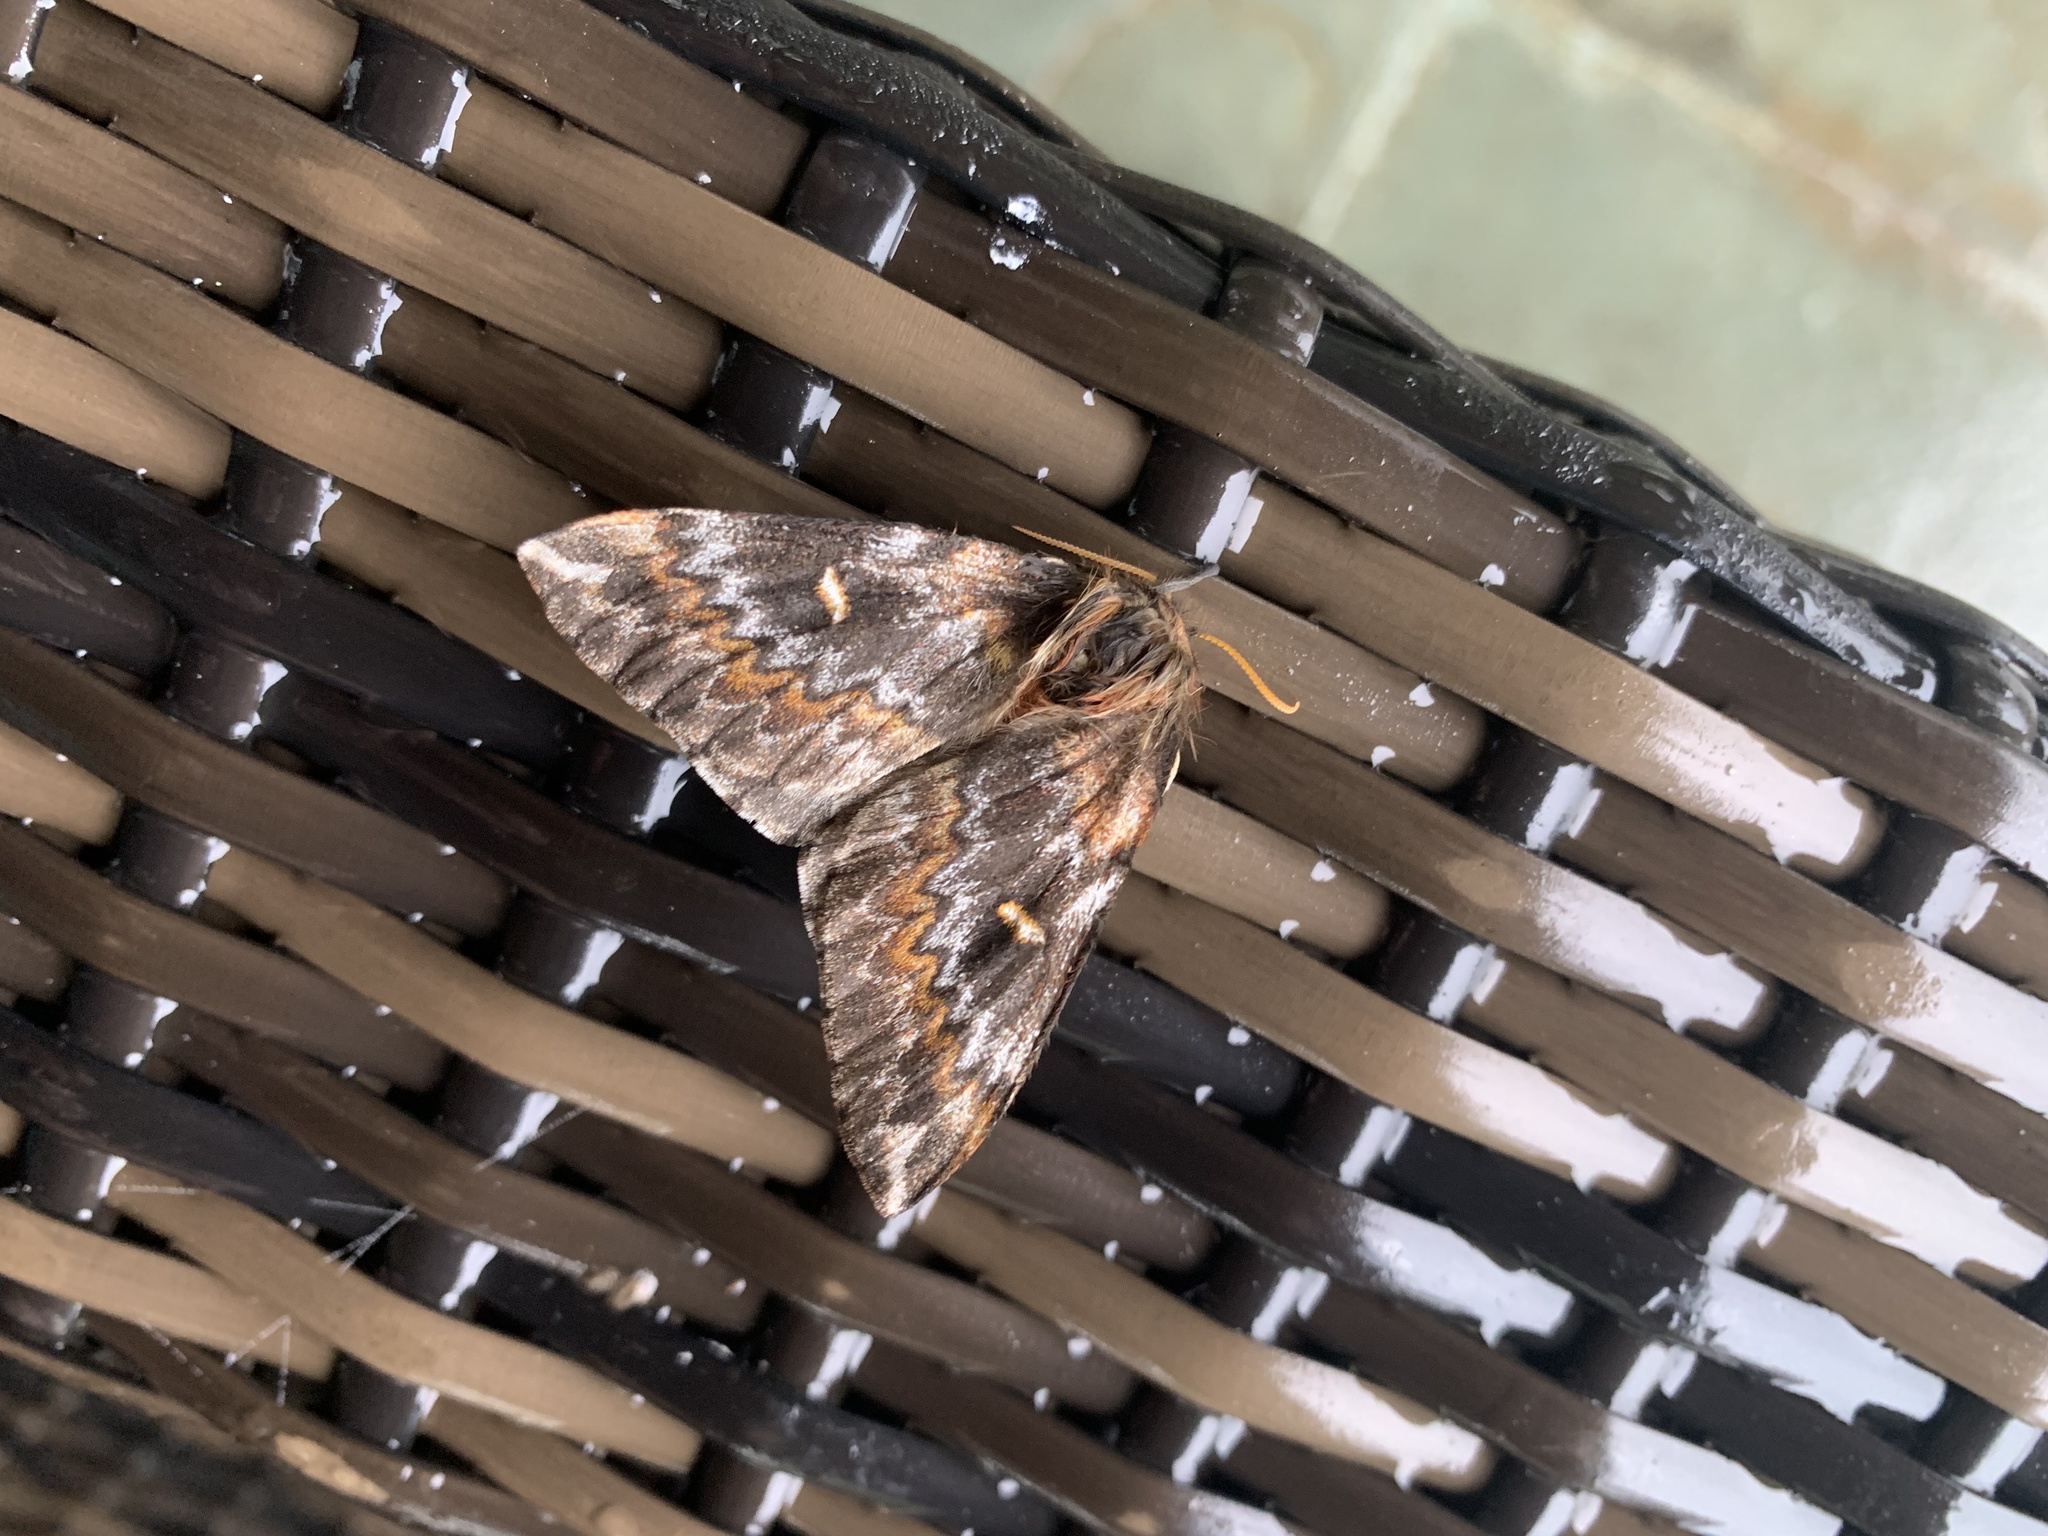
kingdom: Animalia
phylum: Arthropoda
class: Insecta
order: Lepidoptera
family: Saturniidae
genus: Ormiscodes
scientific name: Ormiscodes schmidtnielseni
